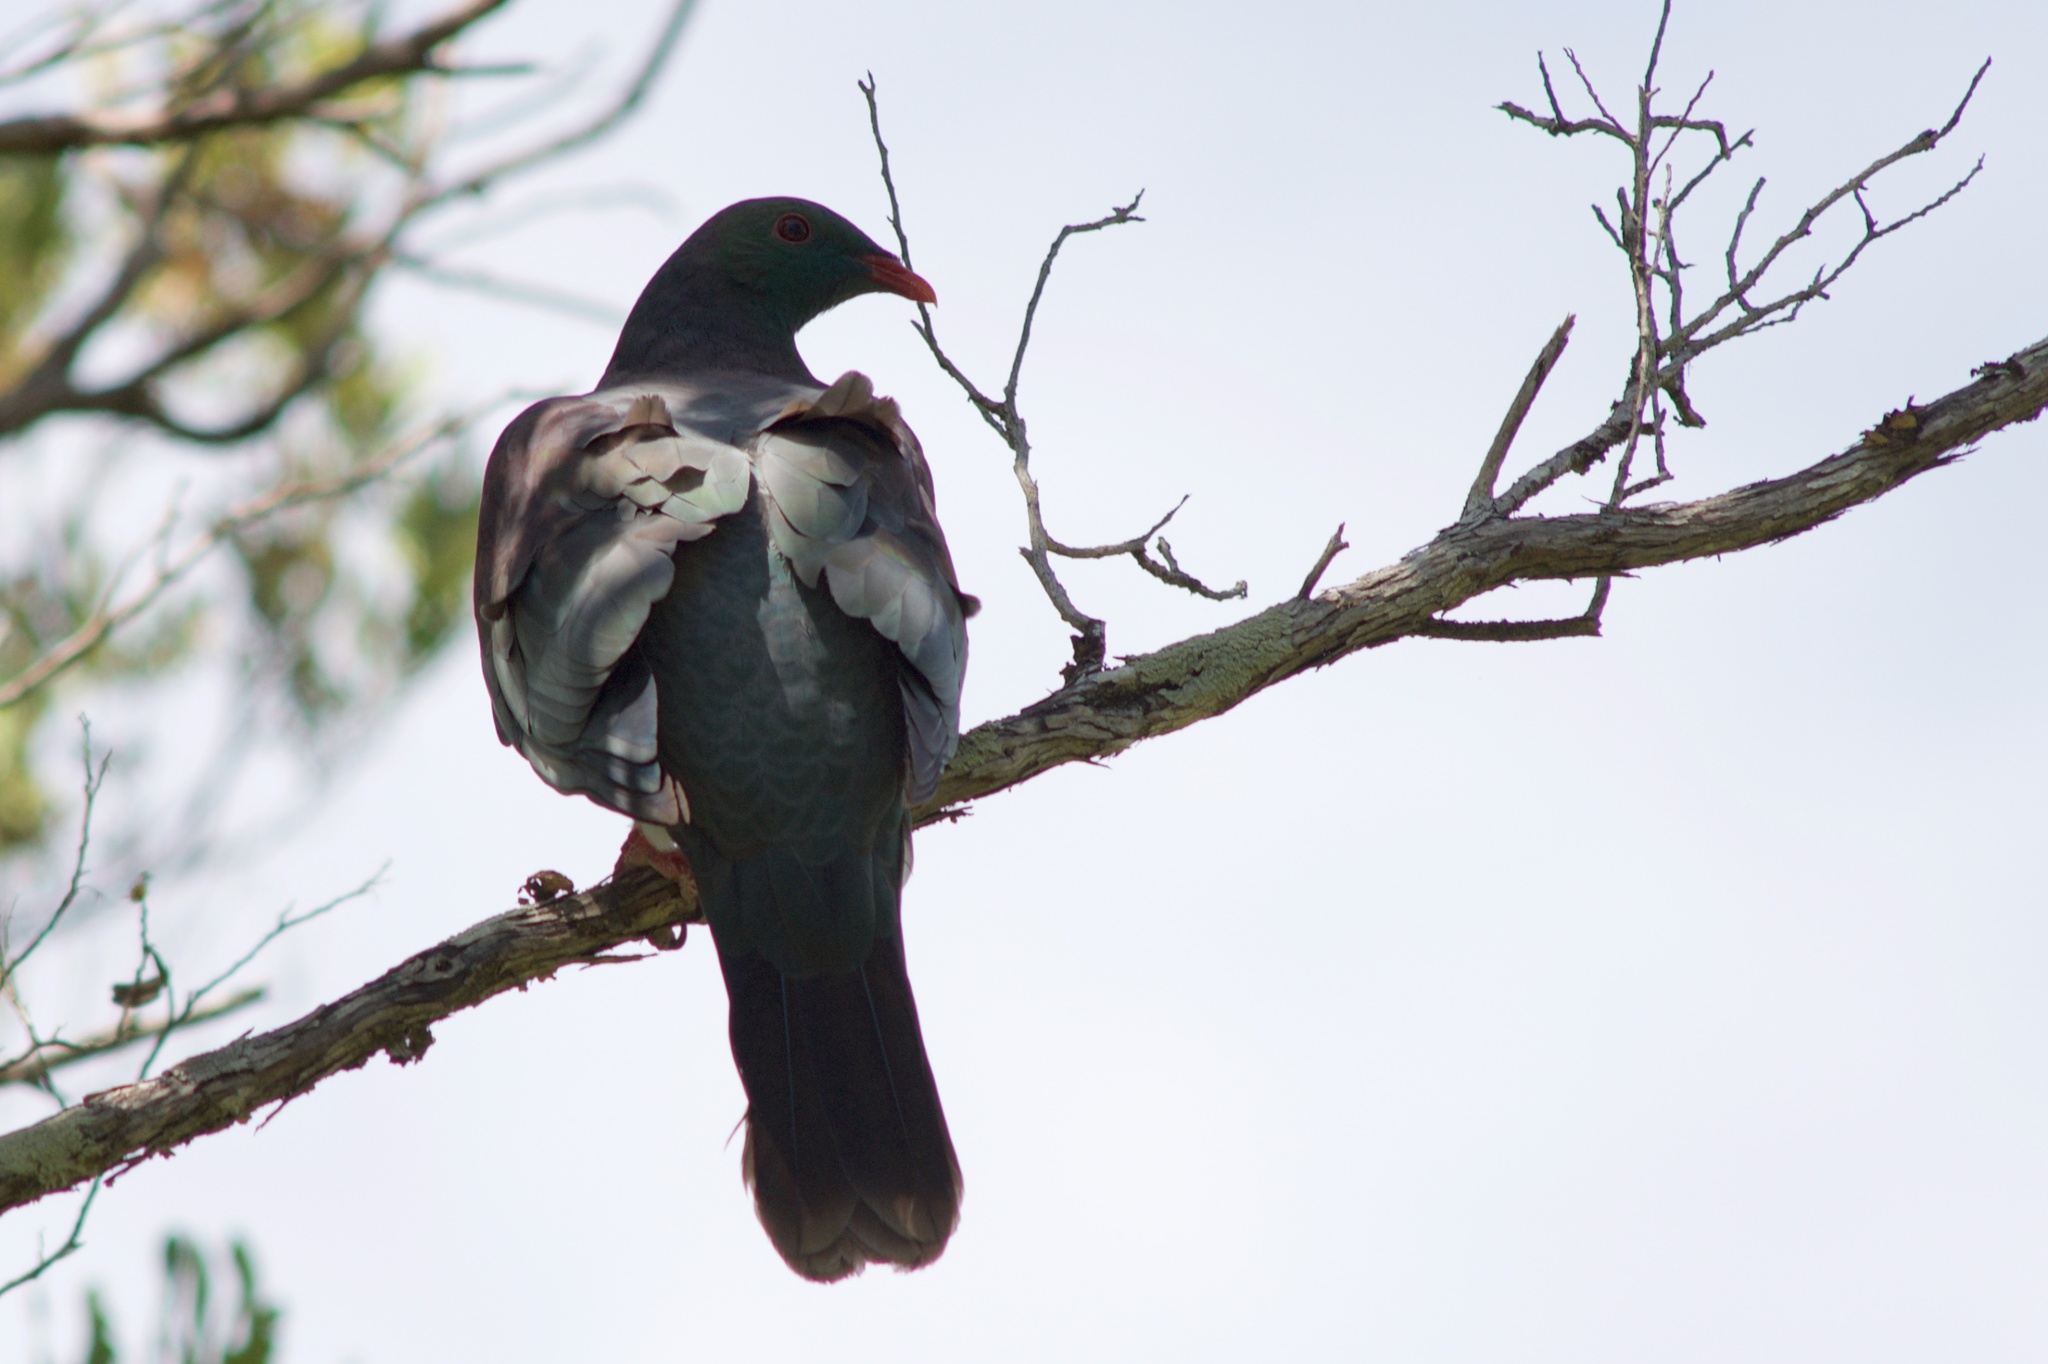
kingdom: Animalia
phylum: Chordata
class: Aves
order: Columbiformes
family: Columbidae
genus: Hemiphaga
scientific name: Hemiphaga novaeseelandiae
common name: New zealand pigeon
